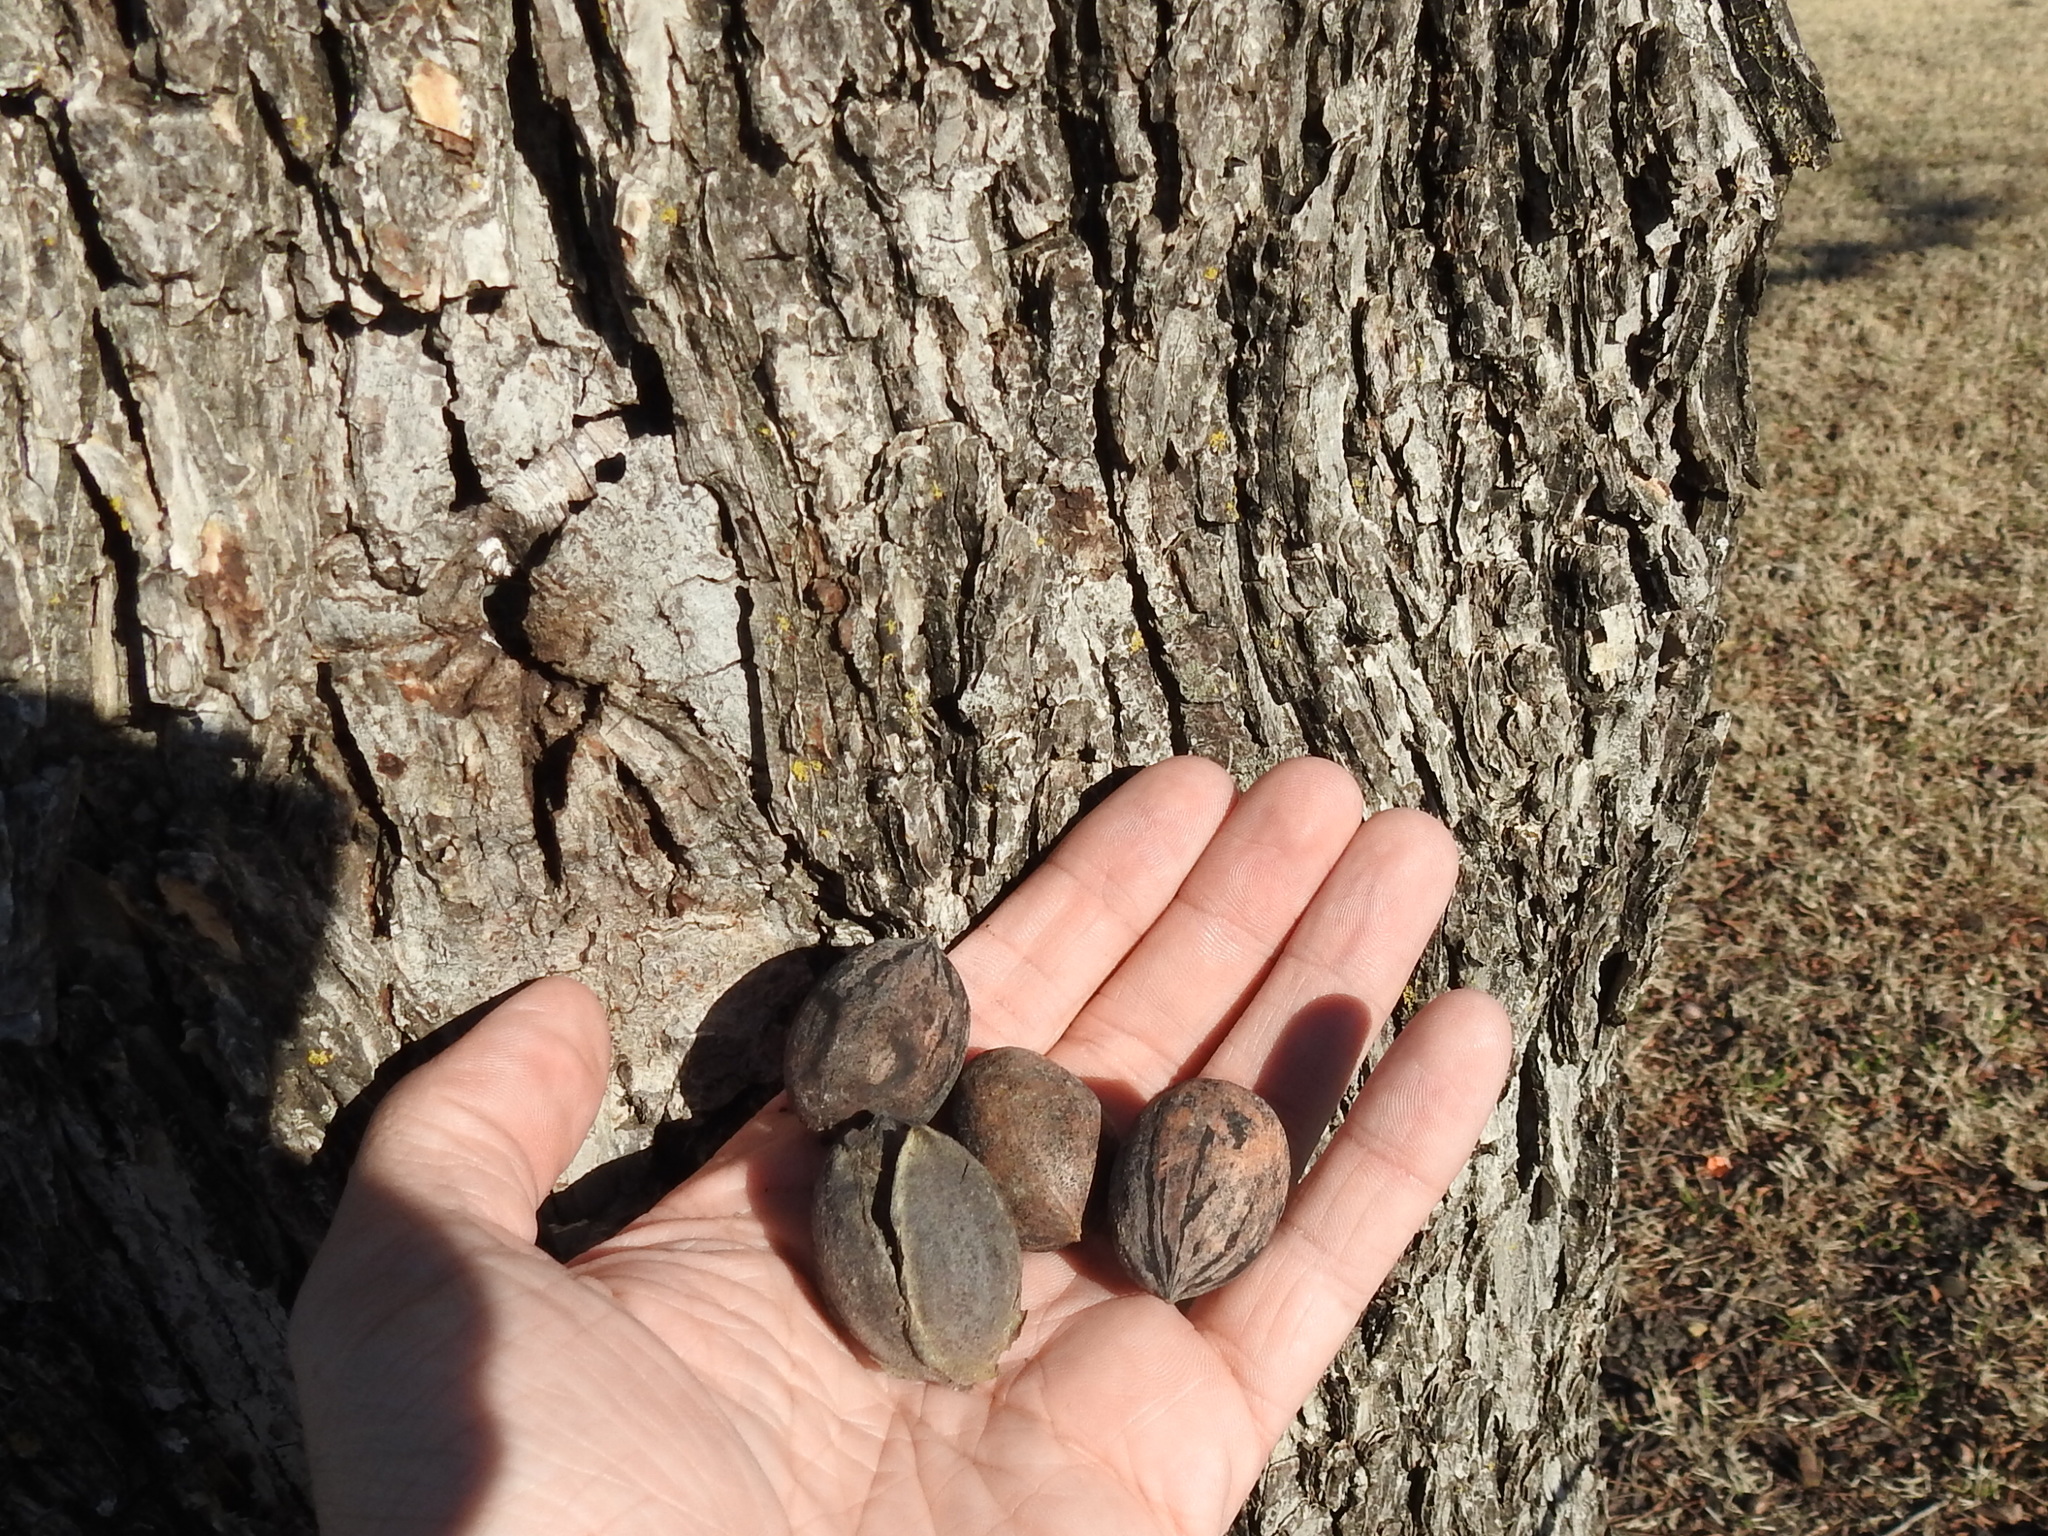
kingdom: Plantae
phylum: Tracheophyta
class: Magnoliopsida
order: Fagales
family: Juglandaceae
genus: Carya
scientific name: Carya illinoinensis
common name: Pecan
